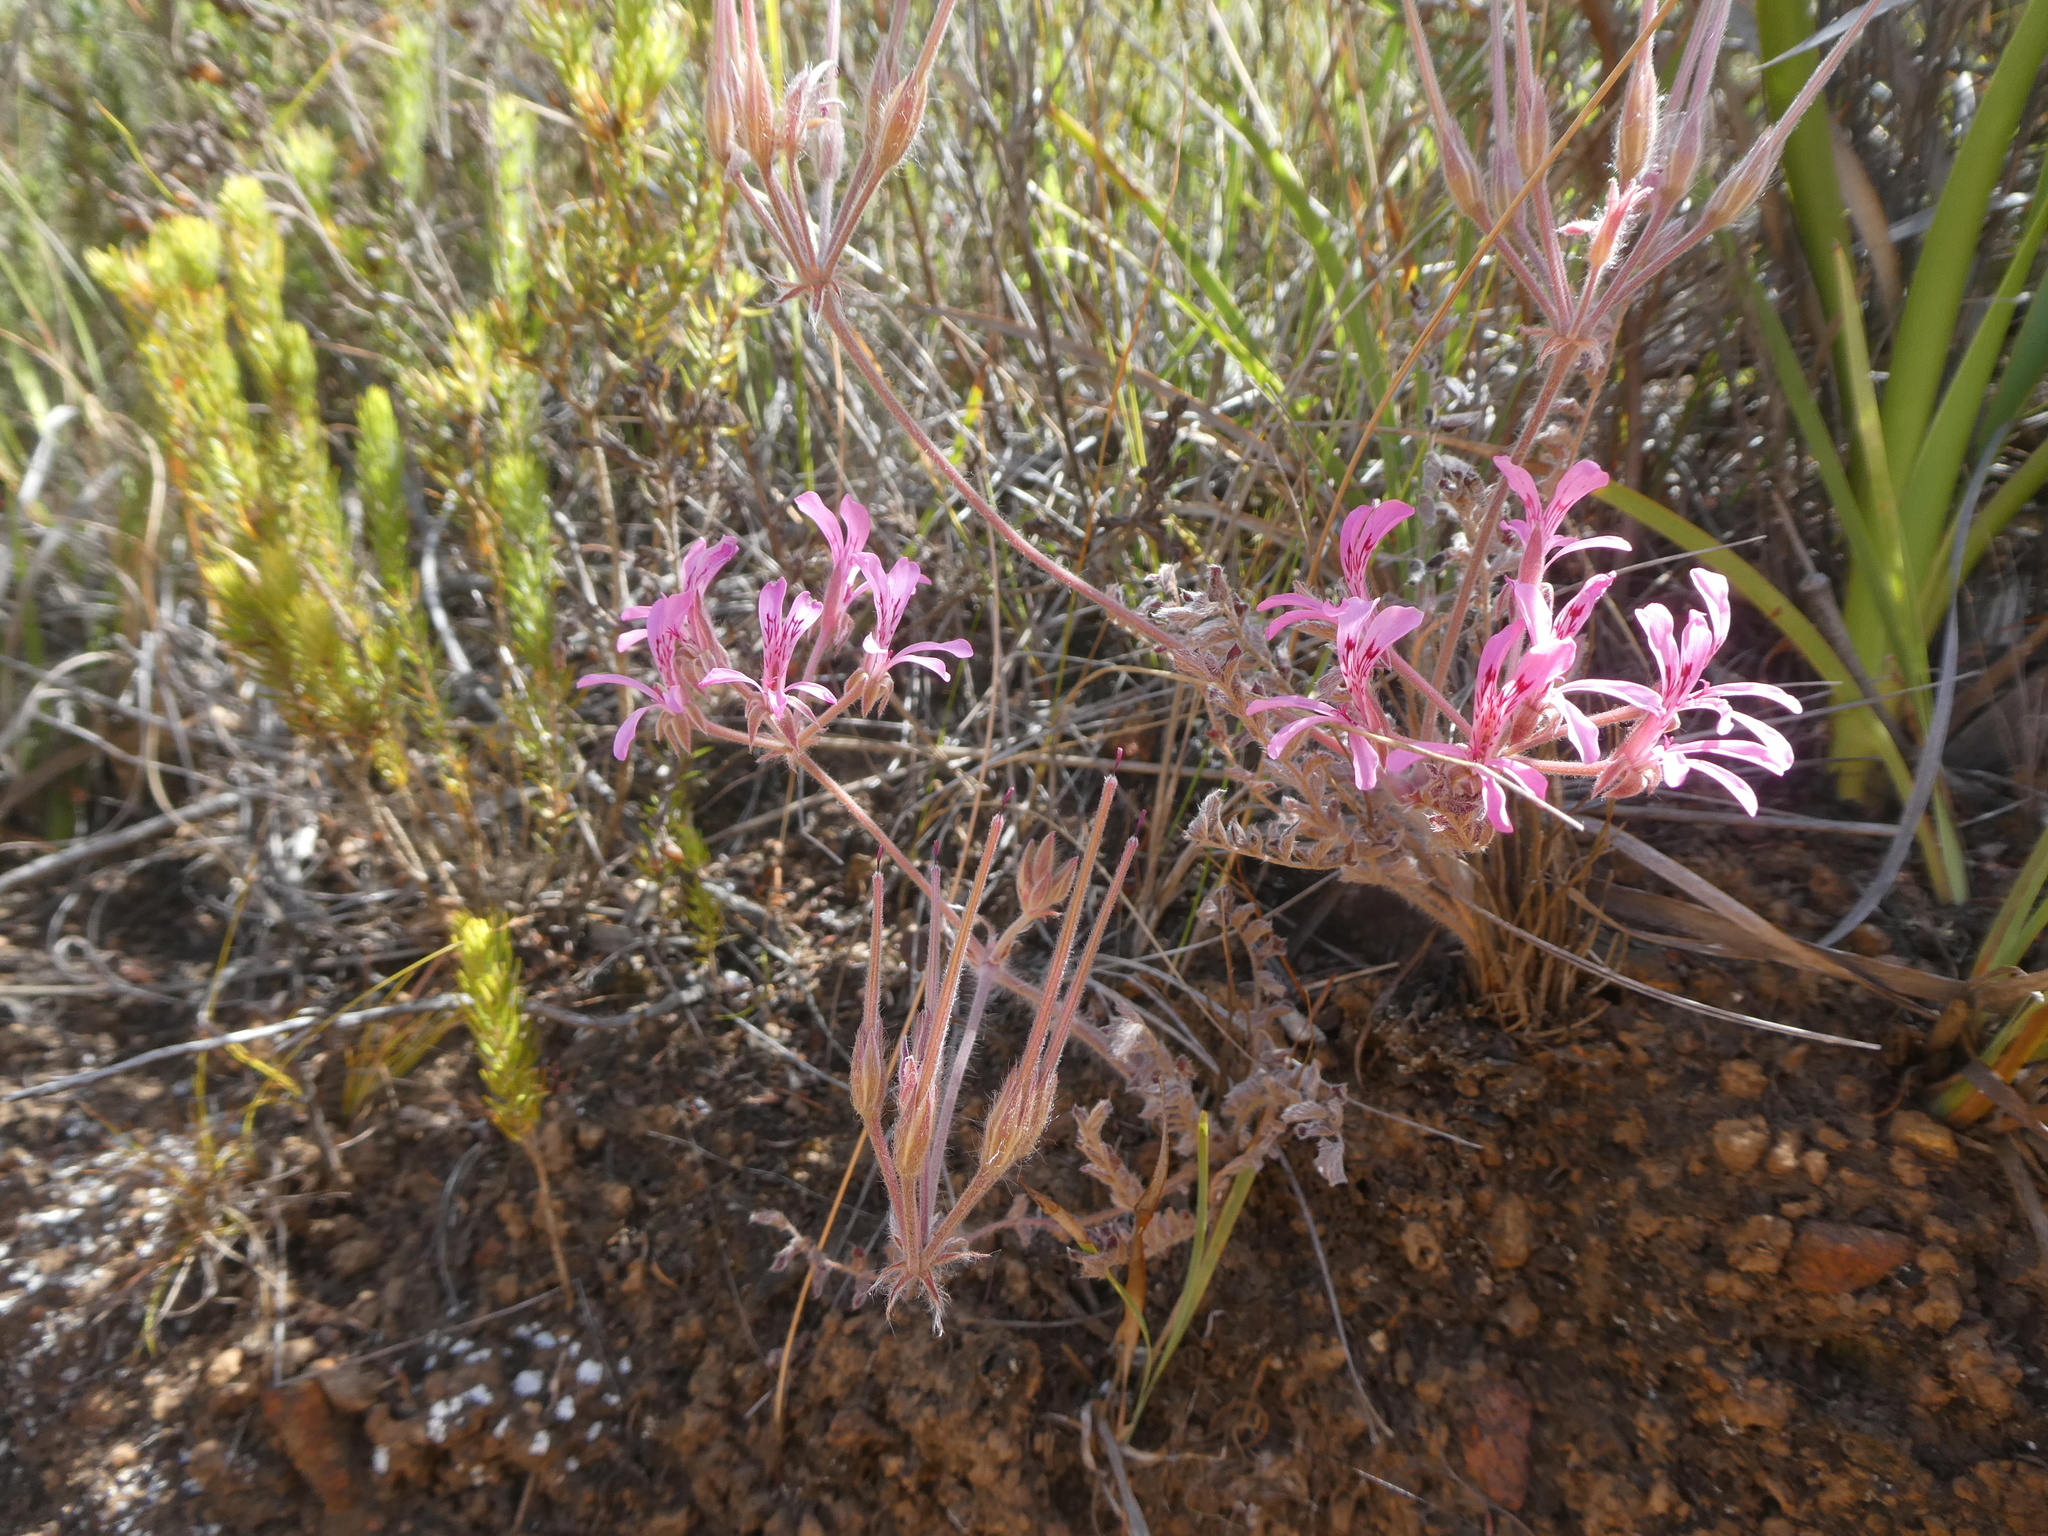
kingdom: Plantae
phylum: Tracheophyta
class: Magnoliopsida
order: Geraniales
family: Geraniaceae
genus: Pelargonium
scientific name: Pelargonium pinnatum
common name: Pinnated pelargonium
